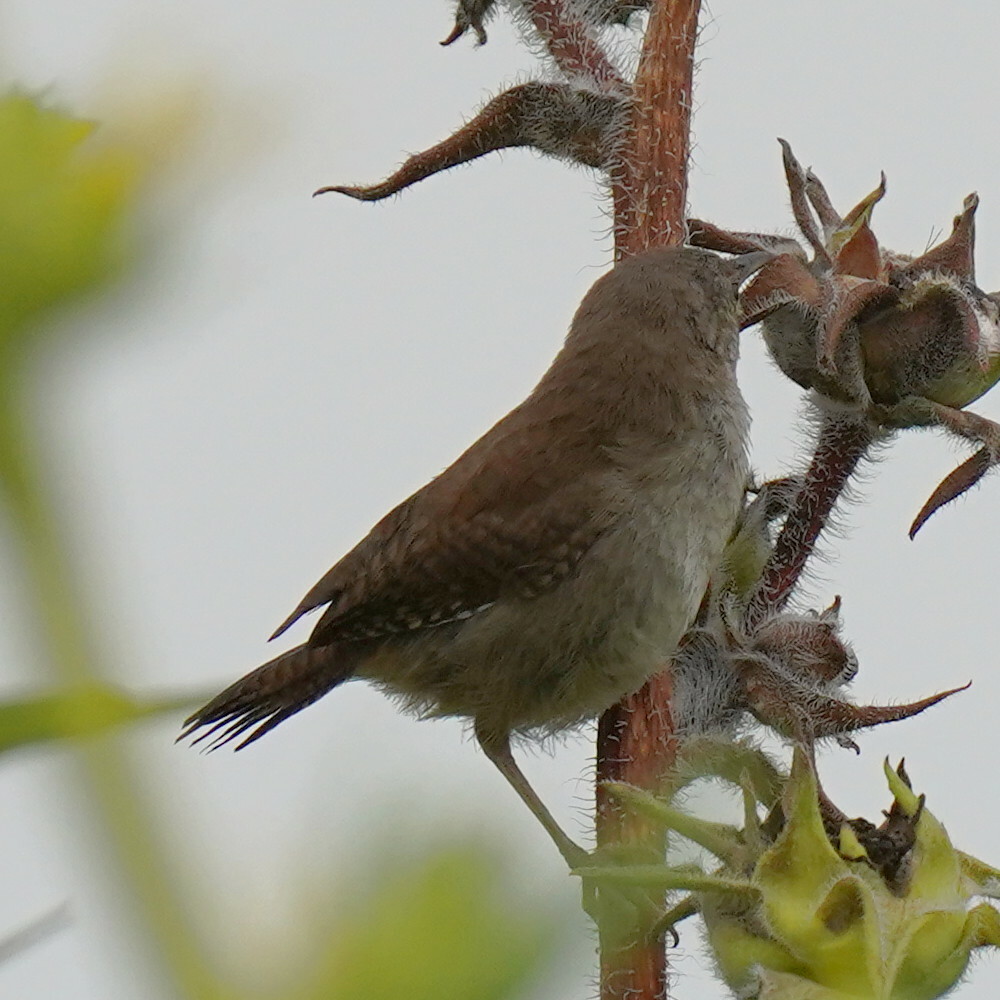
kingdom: Animalia
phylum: Chordata
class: Aves
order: Passeriformes
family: Troglodytidae
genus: Troglodytes
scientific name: Troglodytes aedon
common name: House wren
